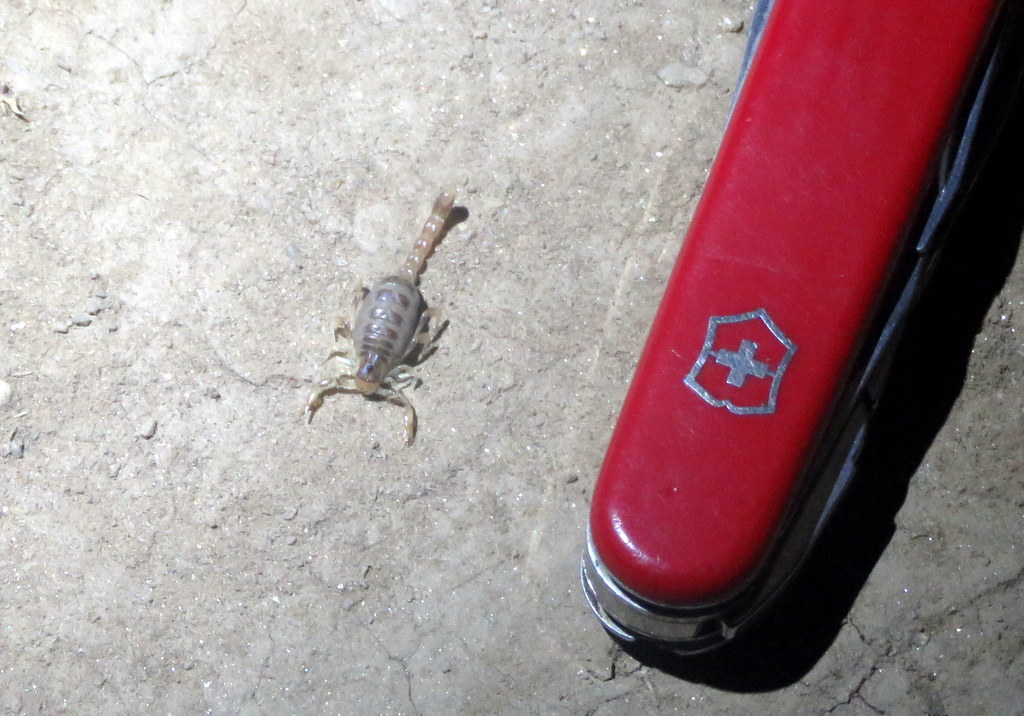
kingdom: Animalia
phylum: Arthropoda
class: Arachnida
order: Scorpiones
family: Bothriuridae
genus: Brachistosternus
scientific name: Brachistosternus ferrugineus
